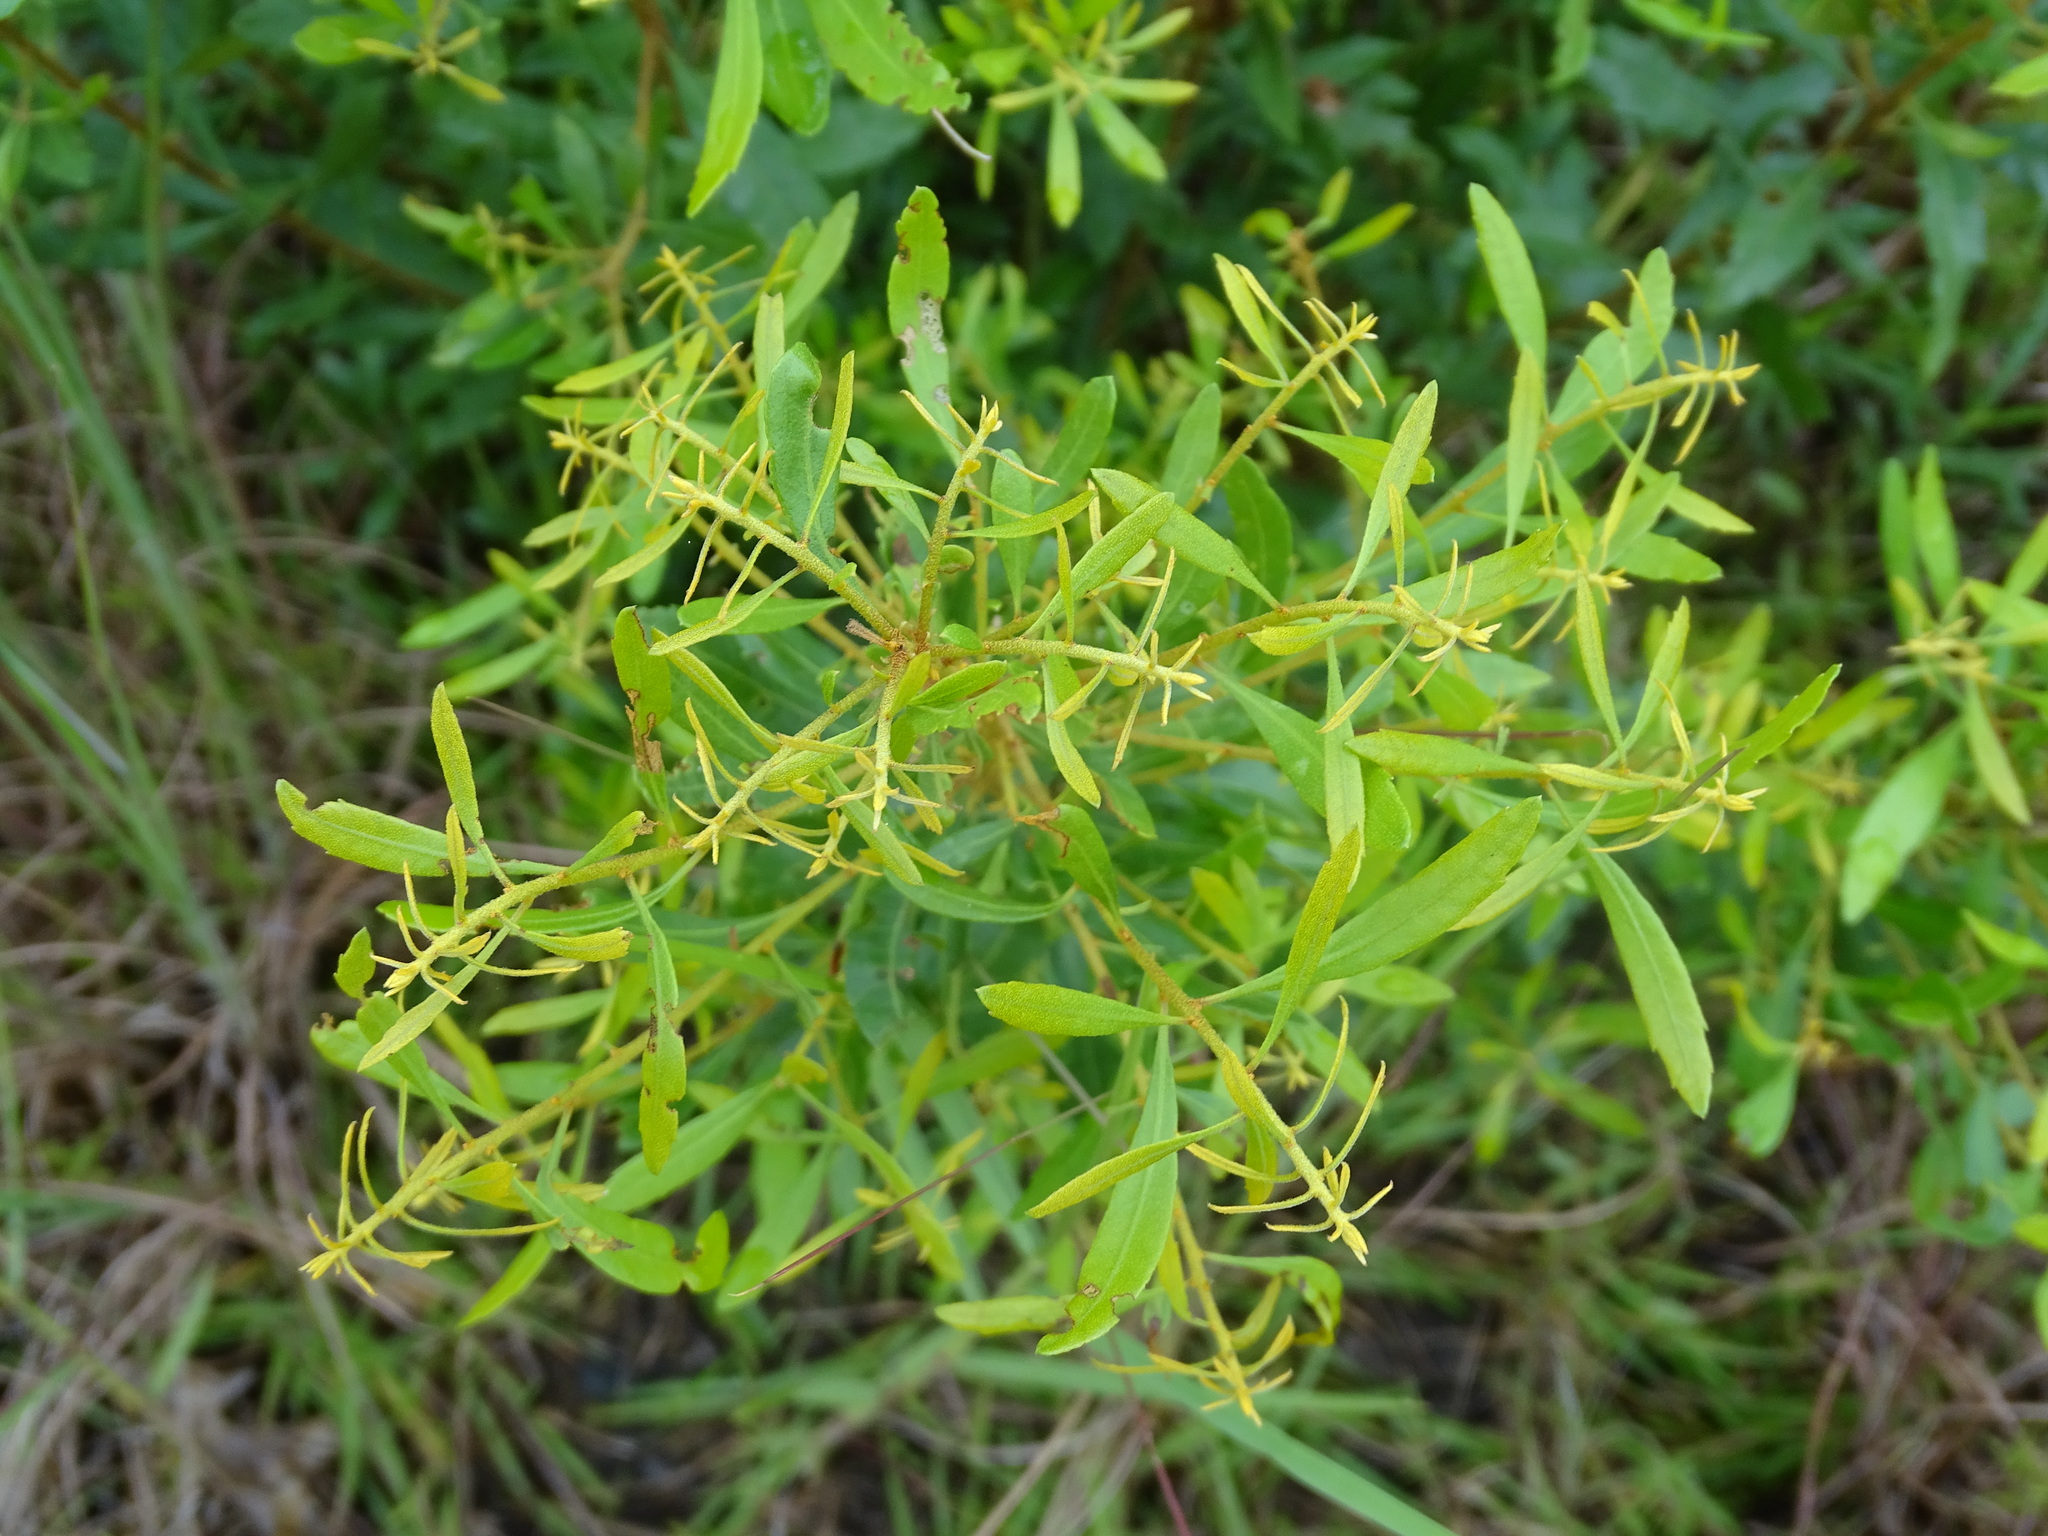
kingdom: Plantae
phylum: Tracheophyta
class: Magnoliopsida
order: Fagales
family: Myricaceae
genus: Morella
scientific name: Morella cerifera
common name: Wax myrtle
